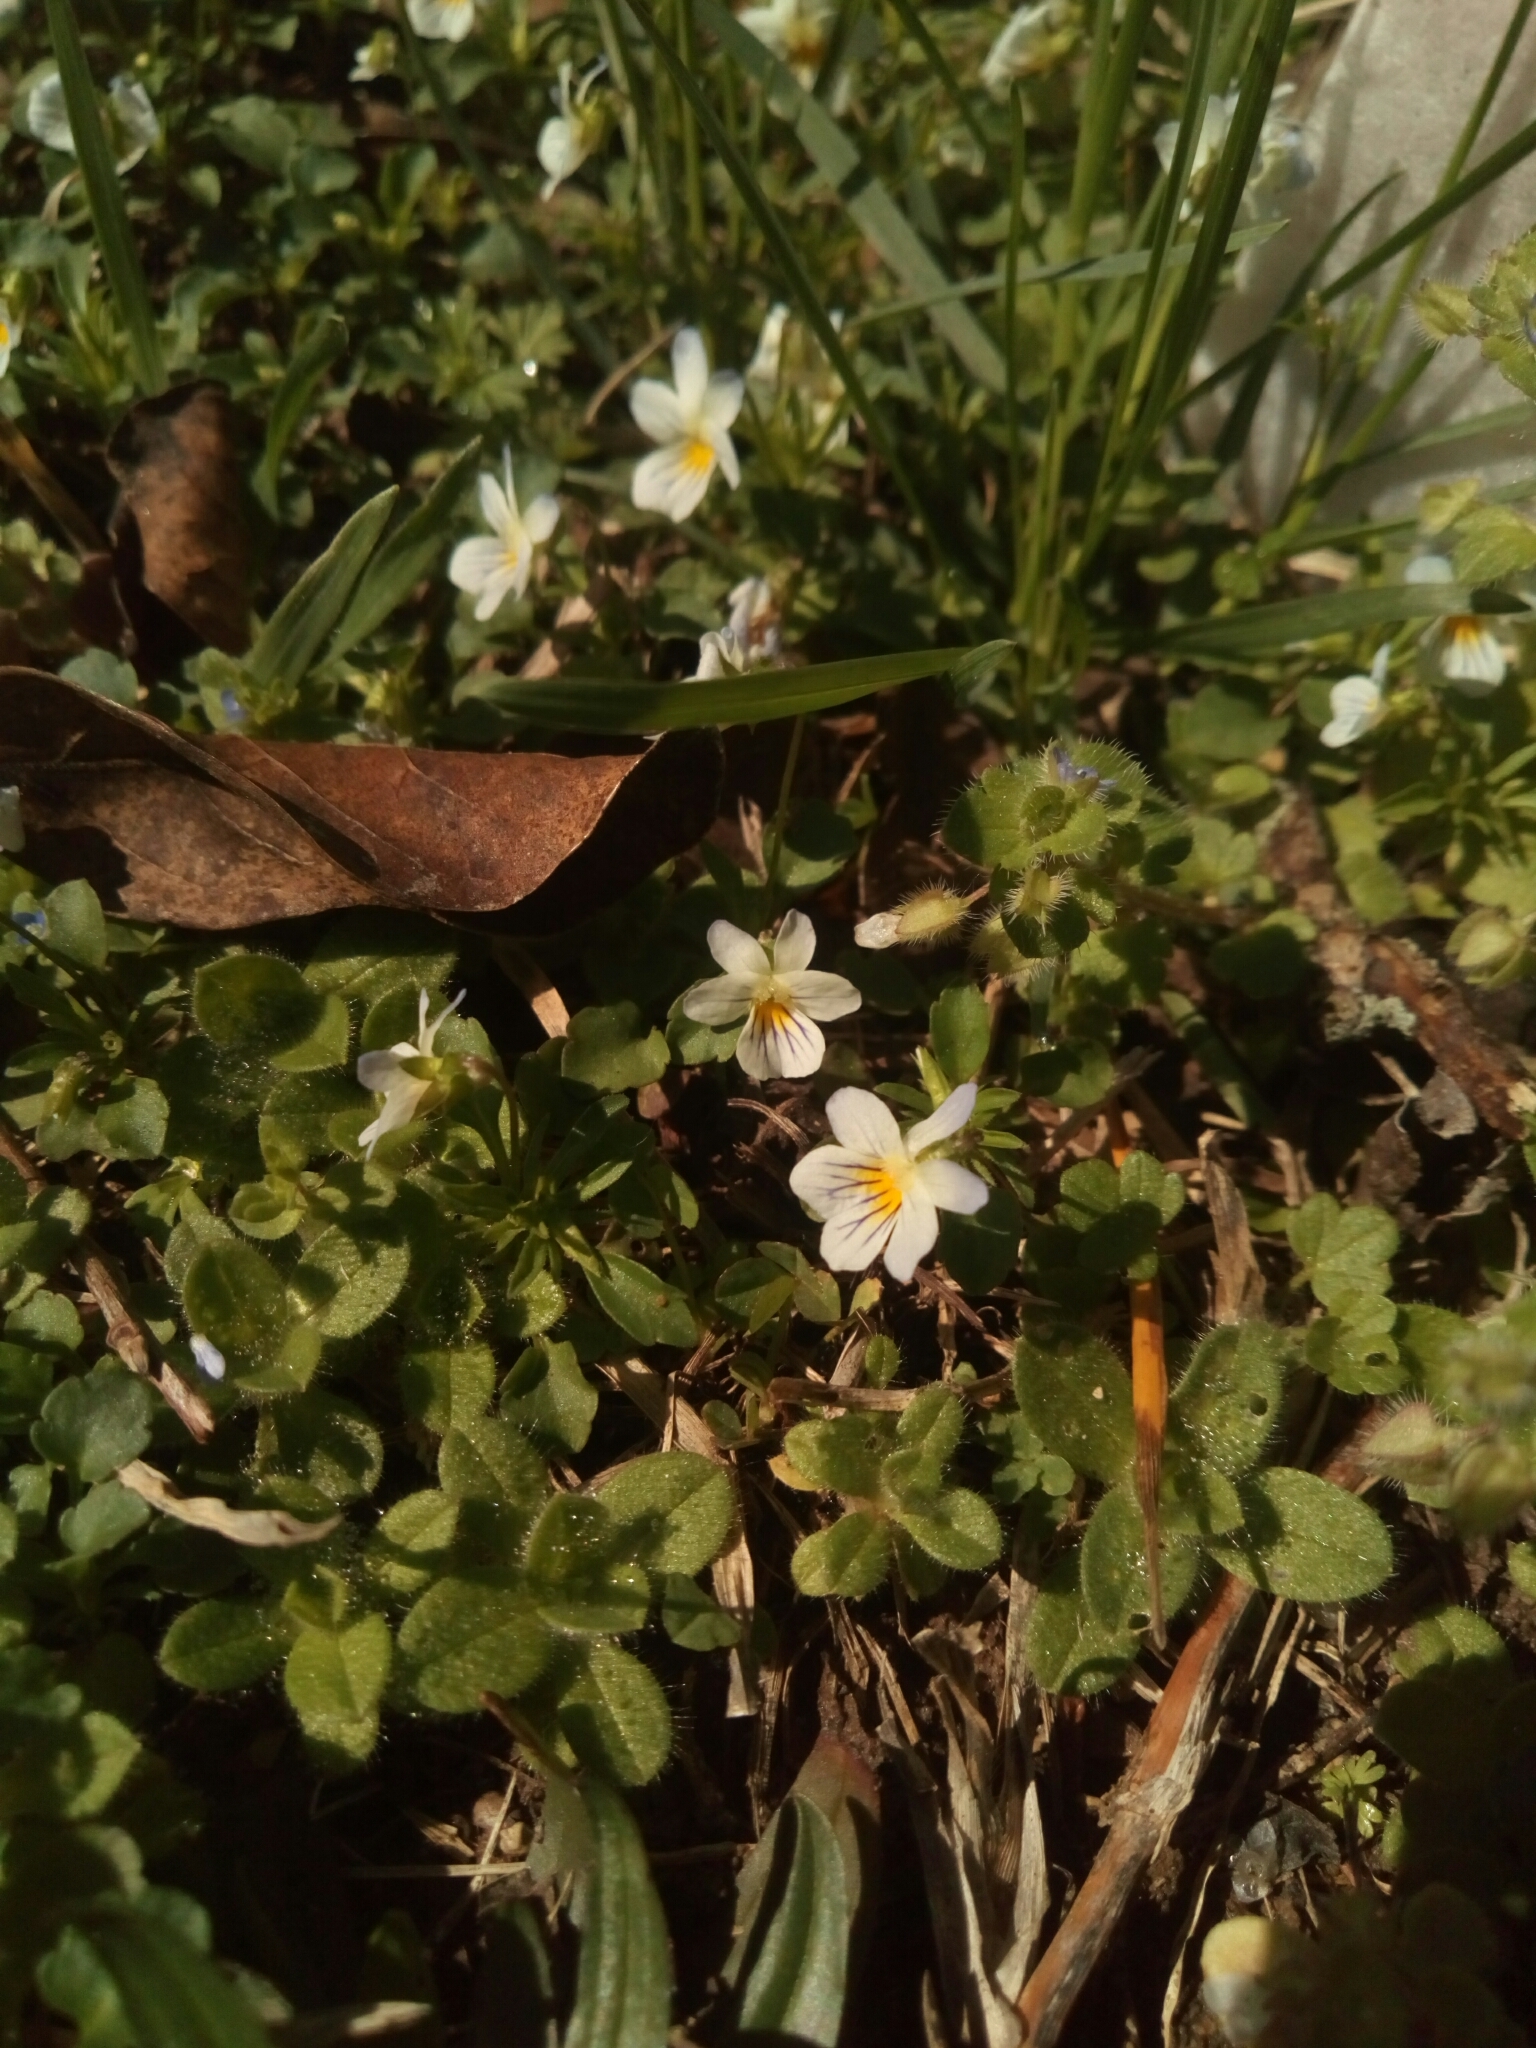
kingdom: Plantae
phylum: Tracheophyta
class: Magnoliopsida
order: Malpighiales
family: Violaceae
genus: Viola
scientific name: Viola rafinesquei
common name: American field pansy
